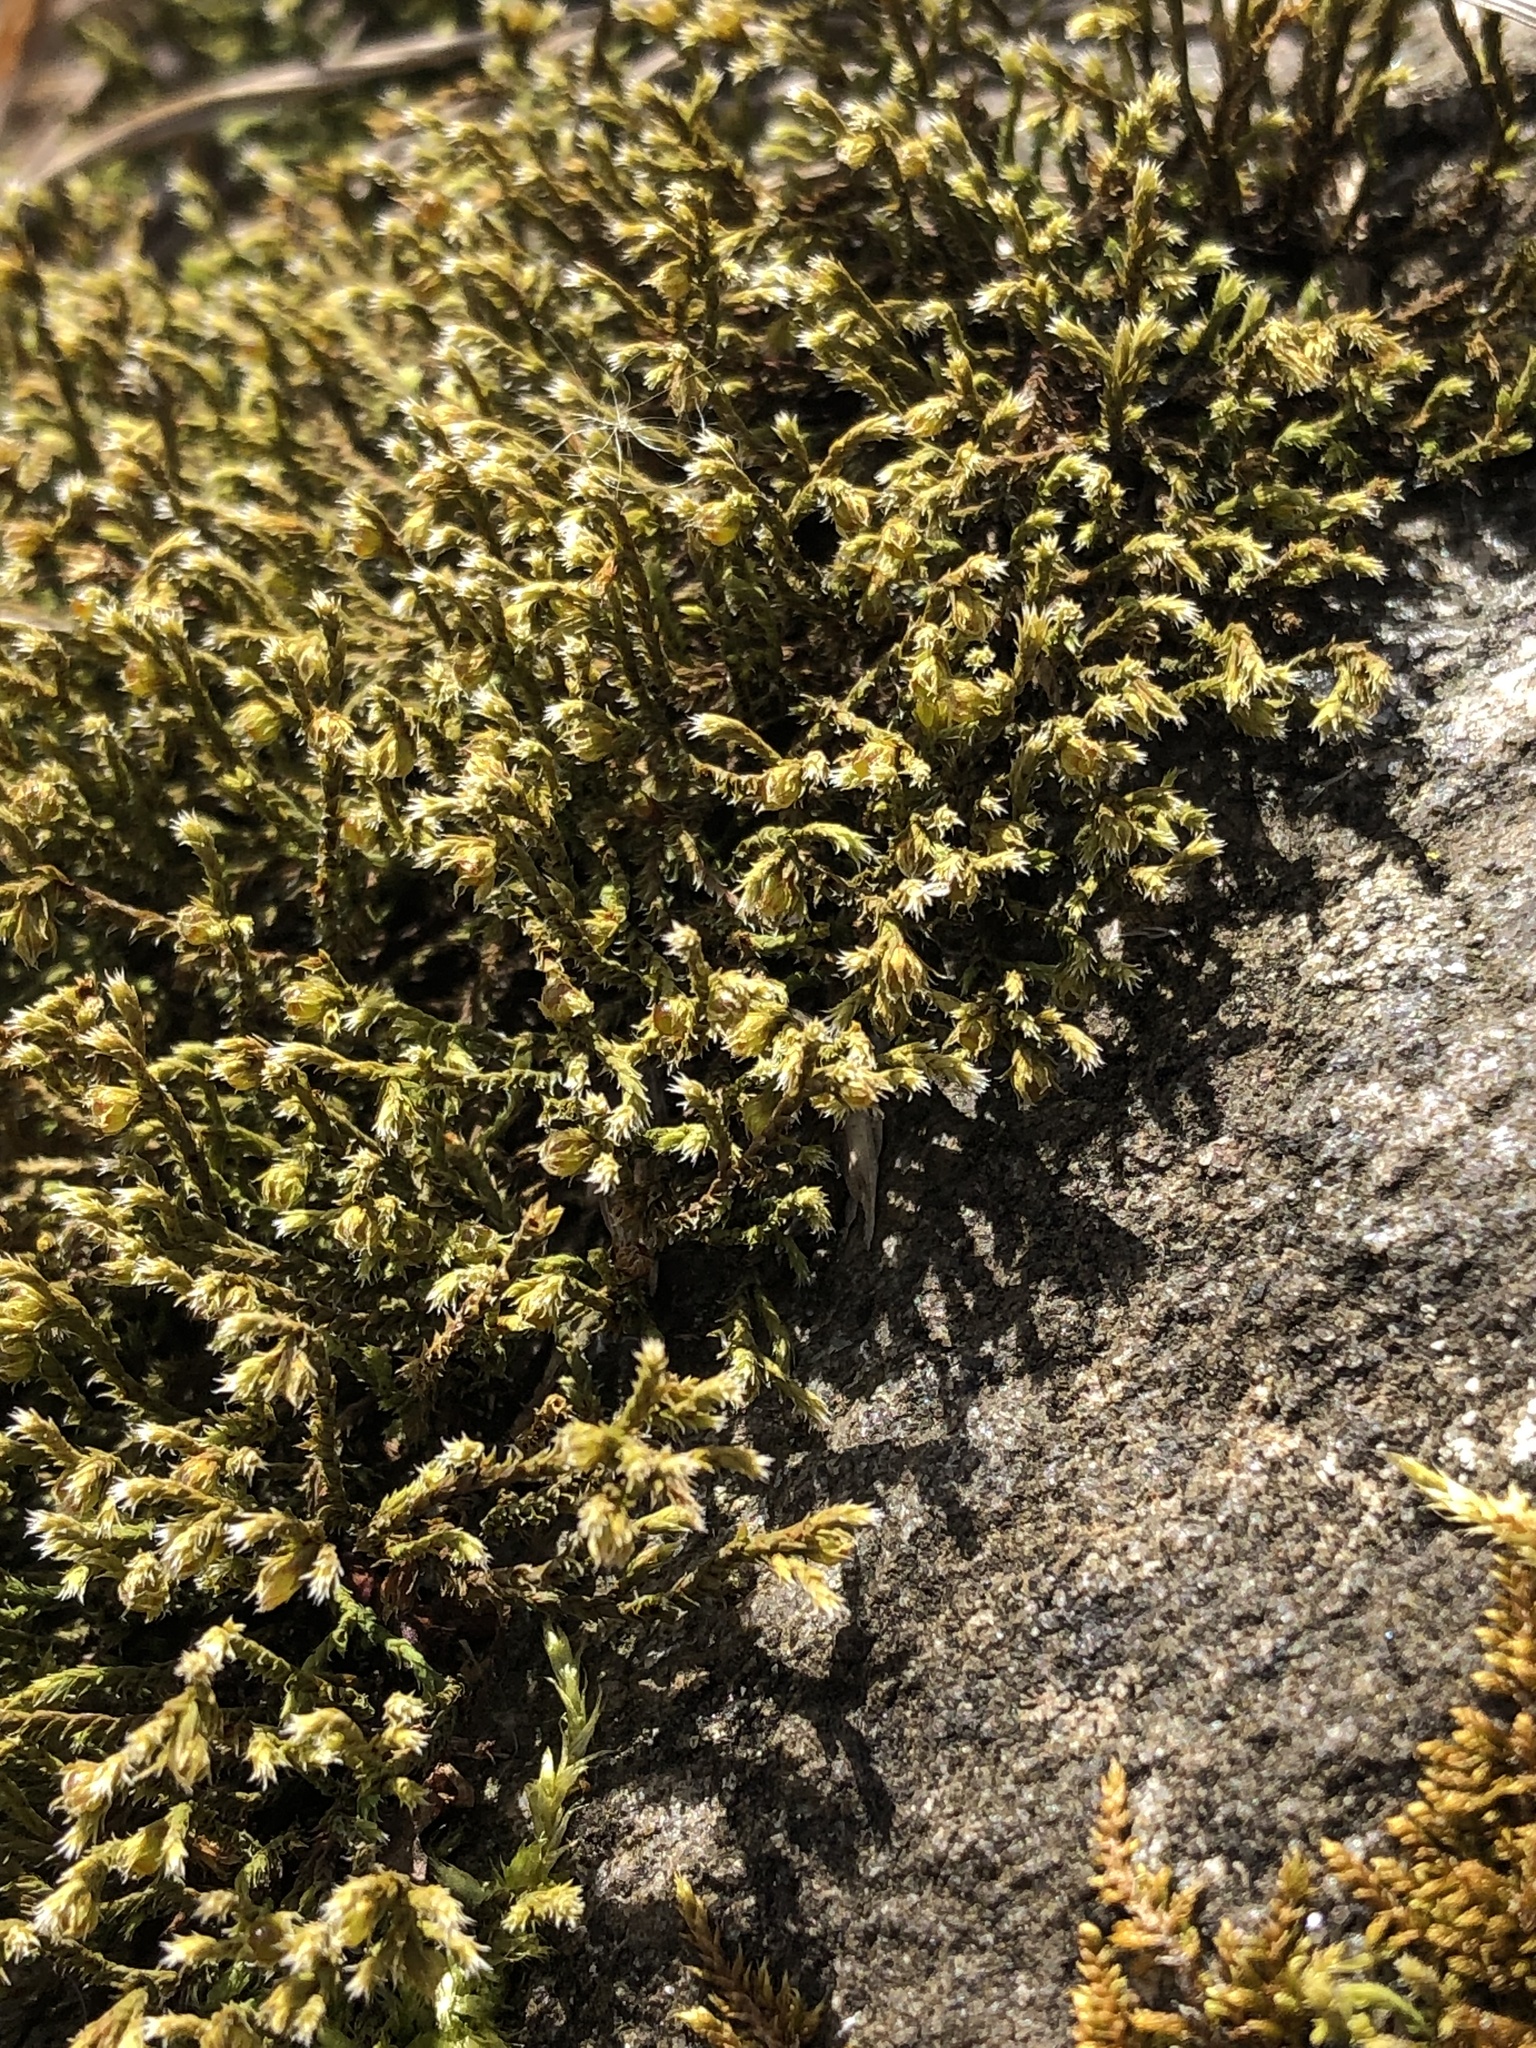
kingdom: Plantae
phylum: Bryophyta
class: Bryopsida
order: Hedwigiales
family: Hedwigiaceae
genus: Hedwigia
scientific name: Hedwigia ciliata
